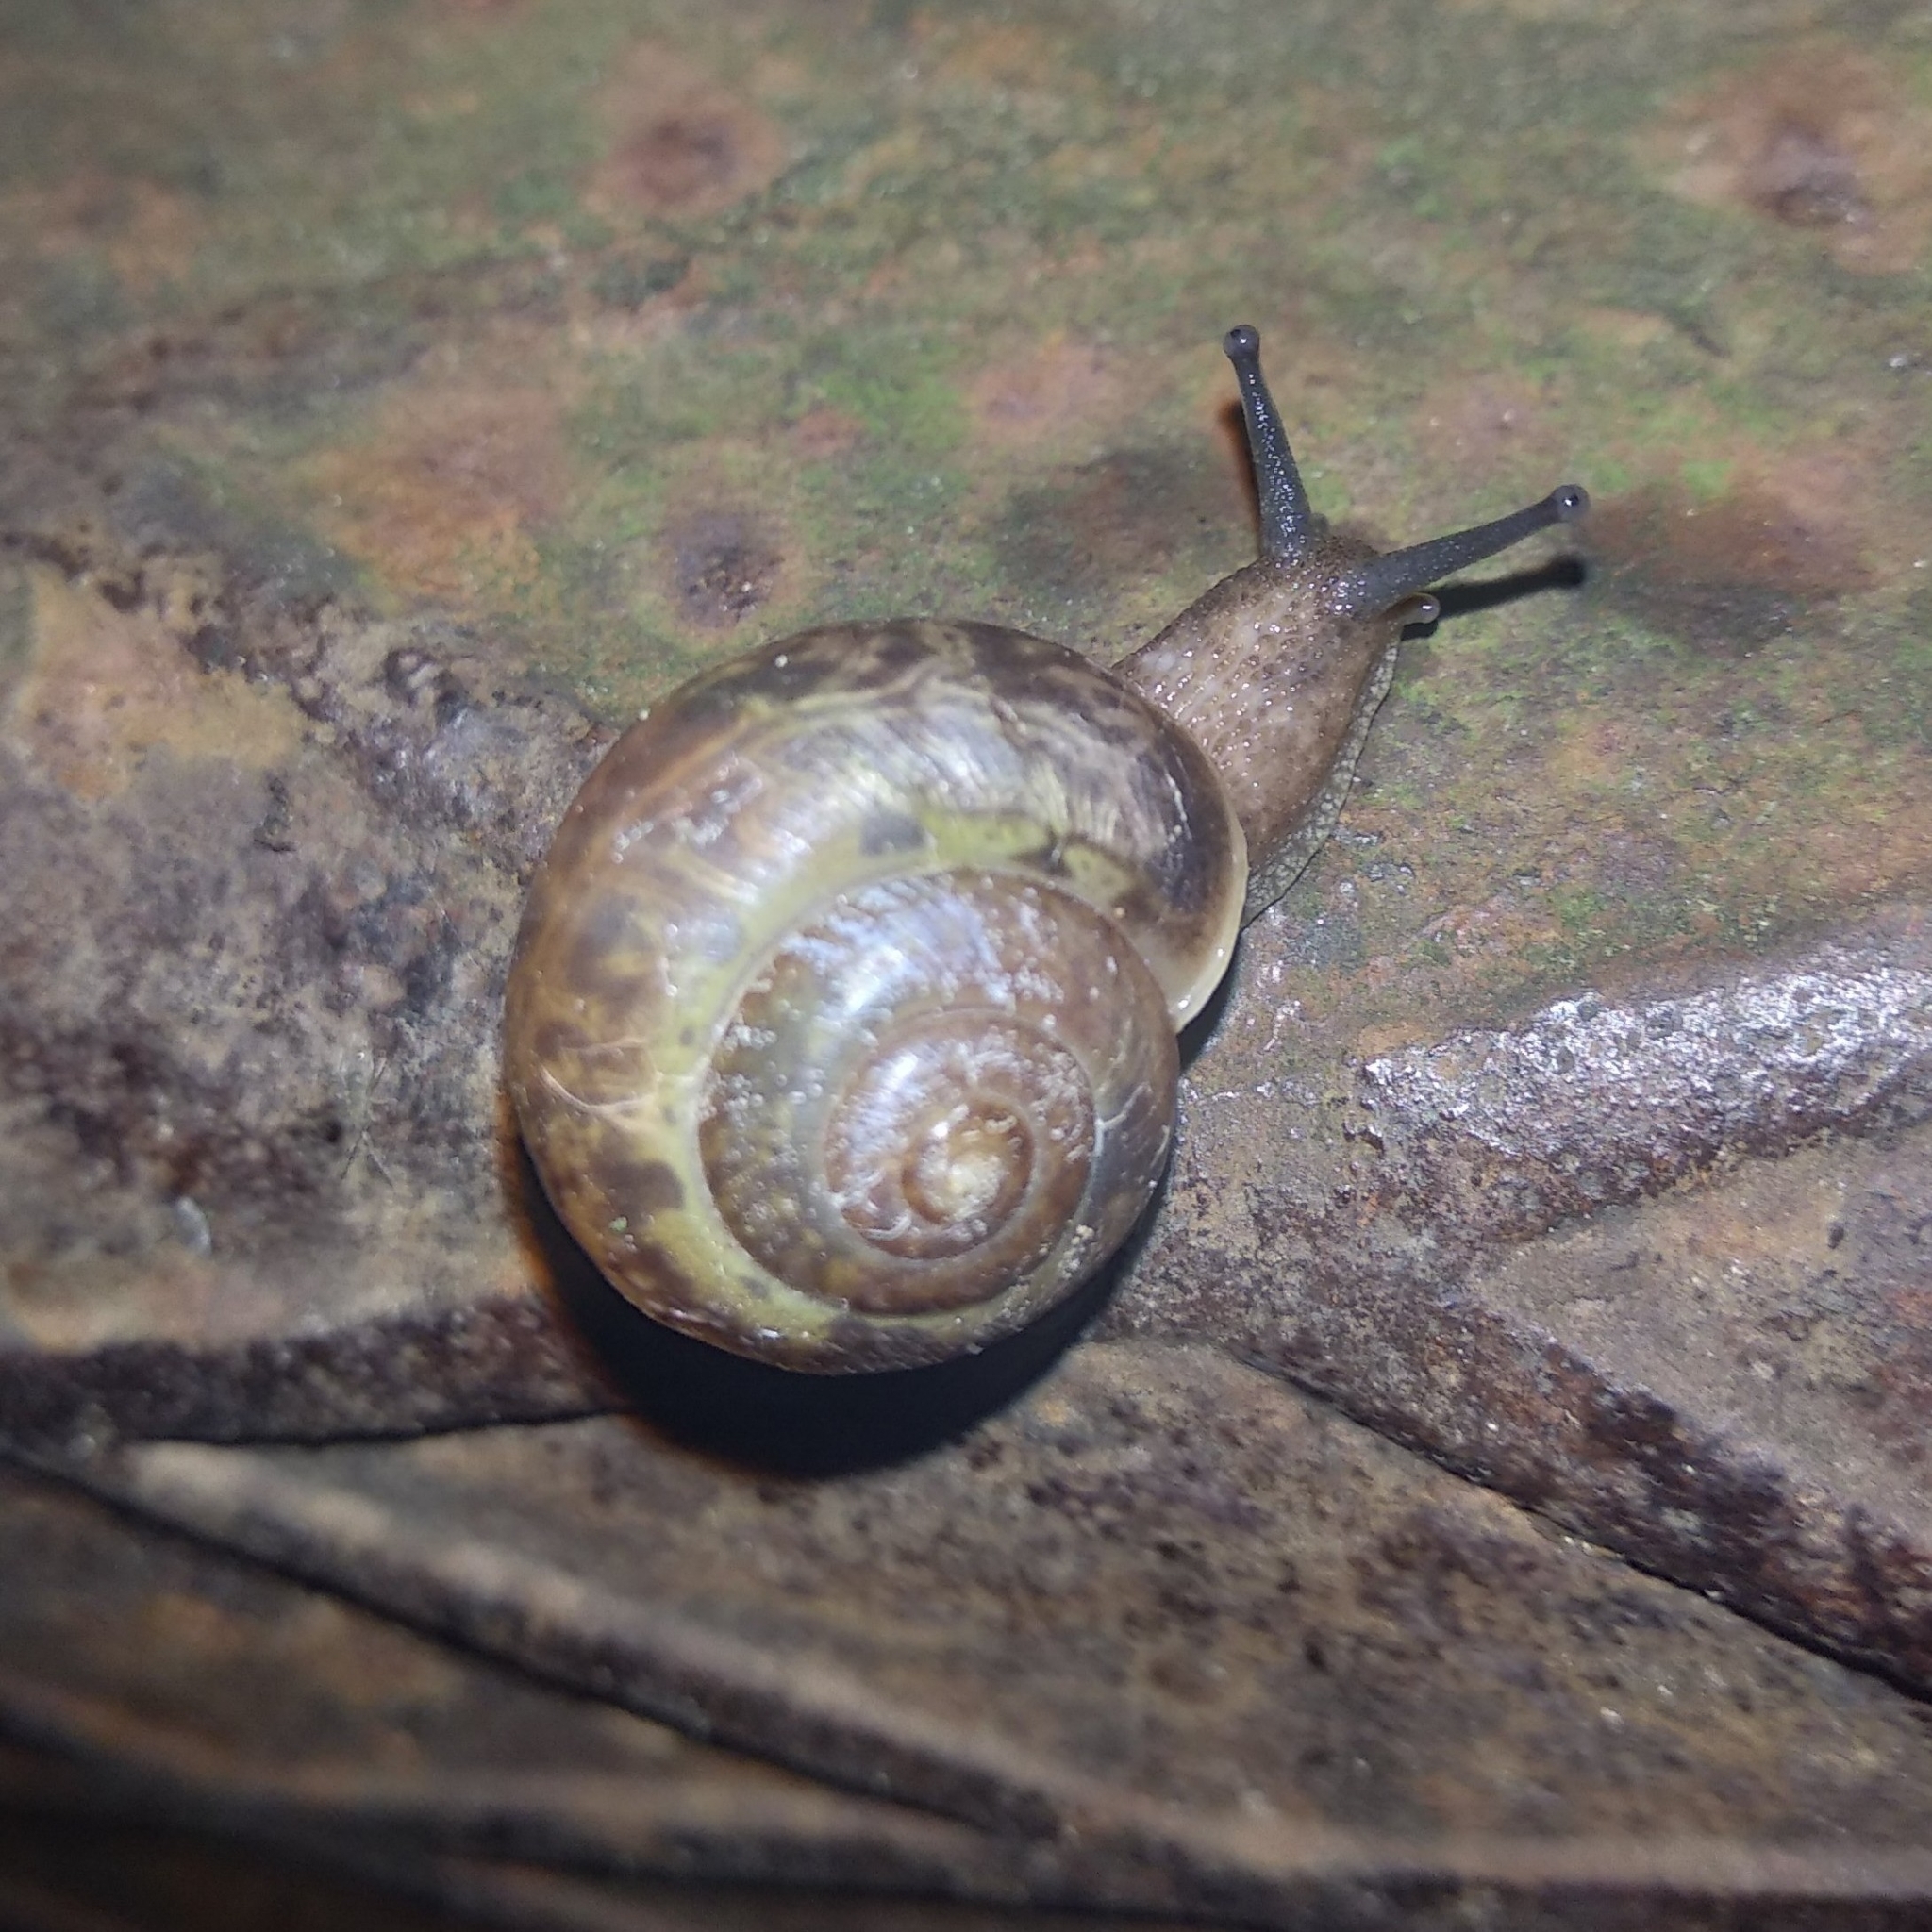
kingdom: Animalia
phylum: Mollusca
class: Gastropoda
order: Stylommatophora
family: Camaenidae
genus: Fruticicola
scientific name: Fruticicola fruticum
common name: Bush snail
